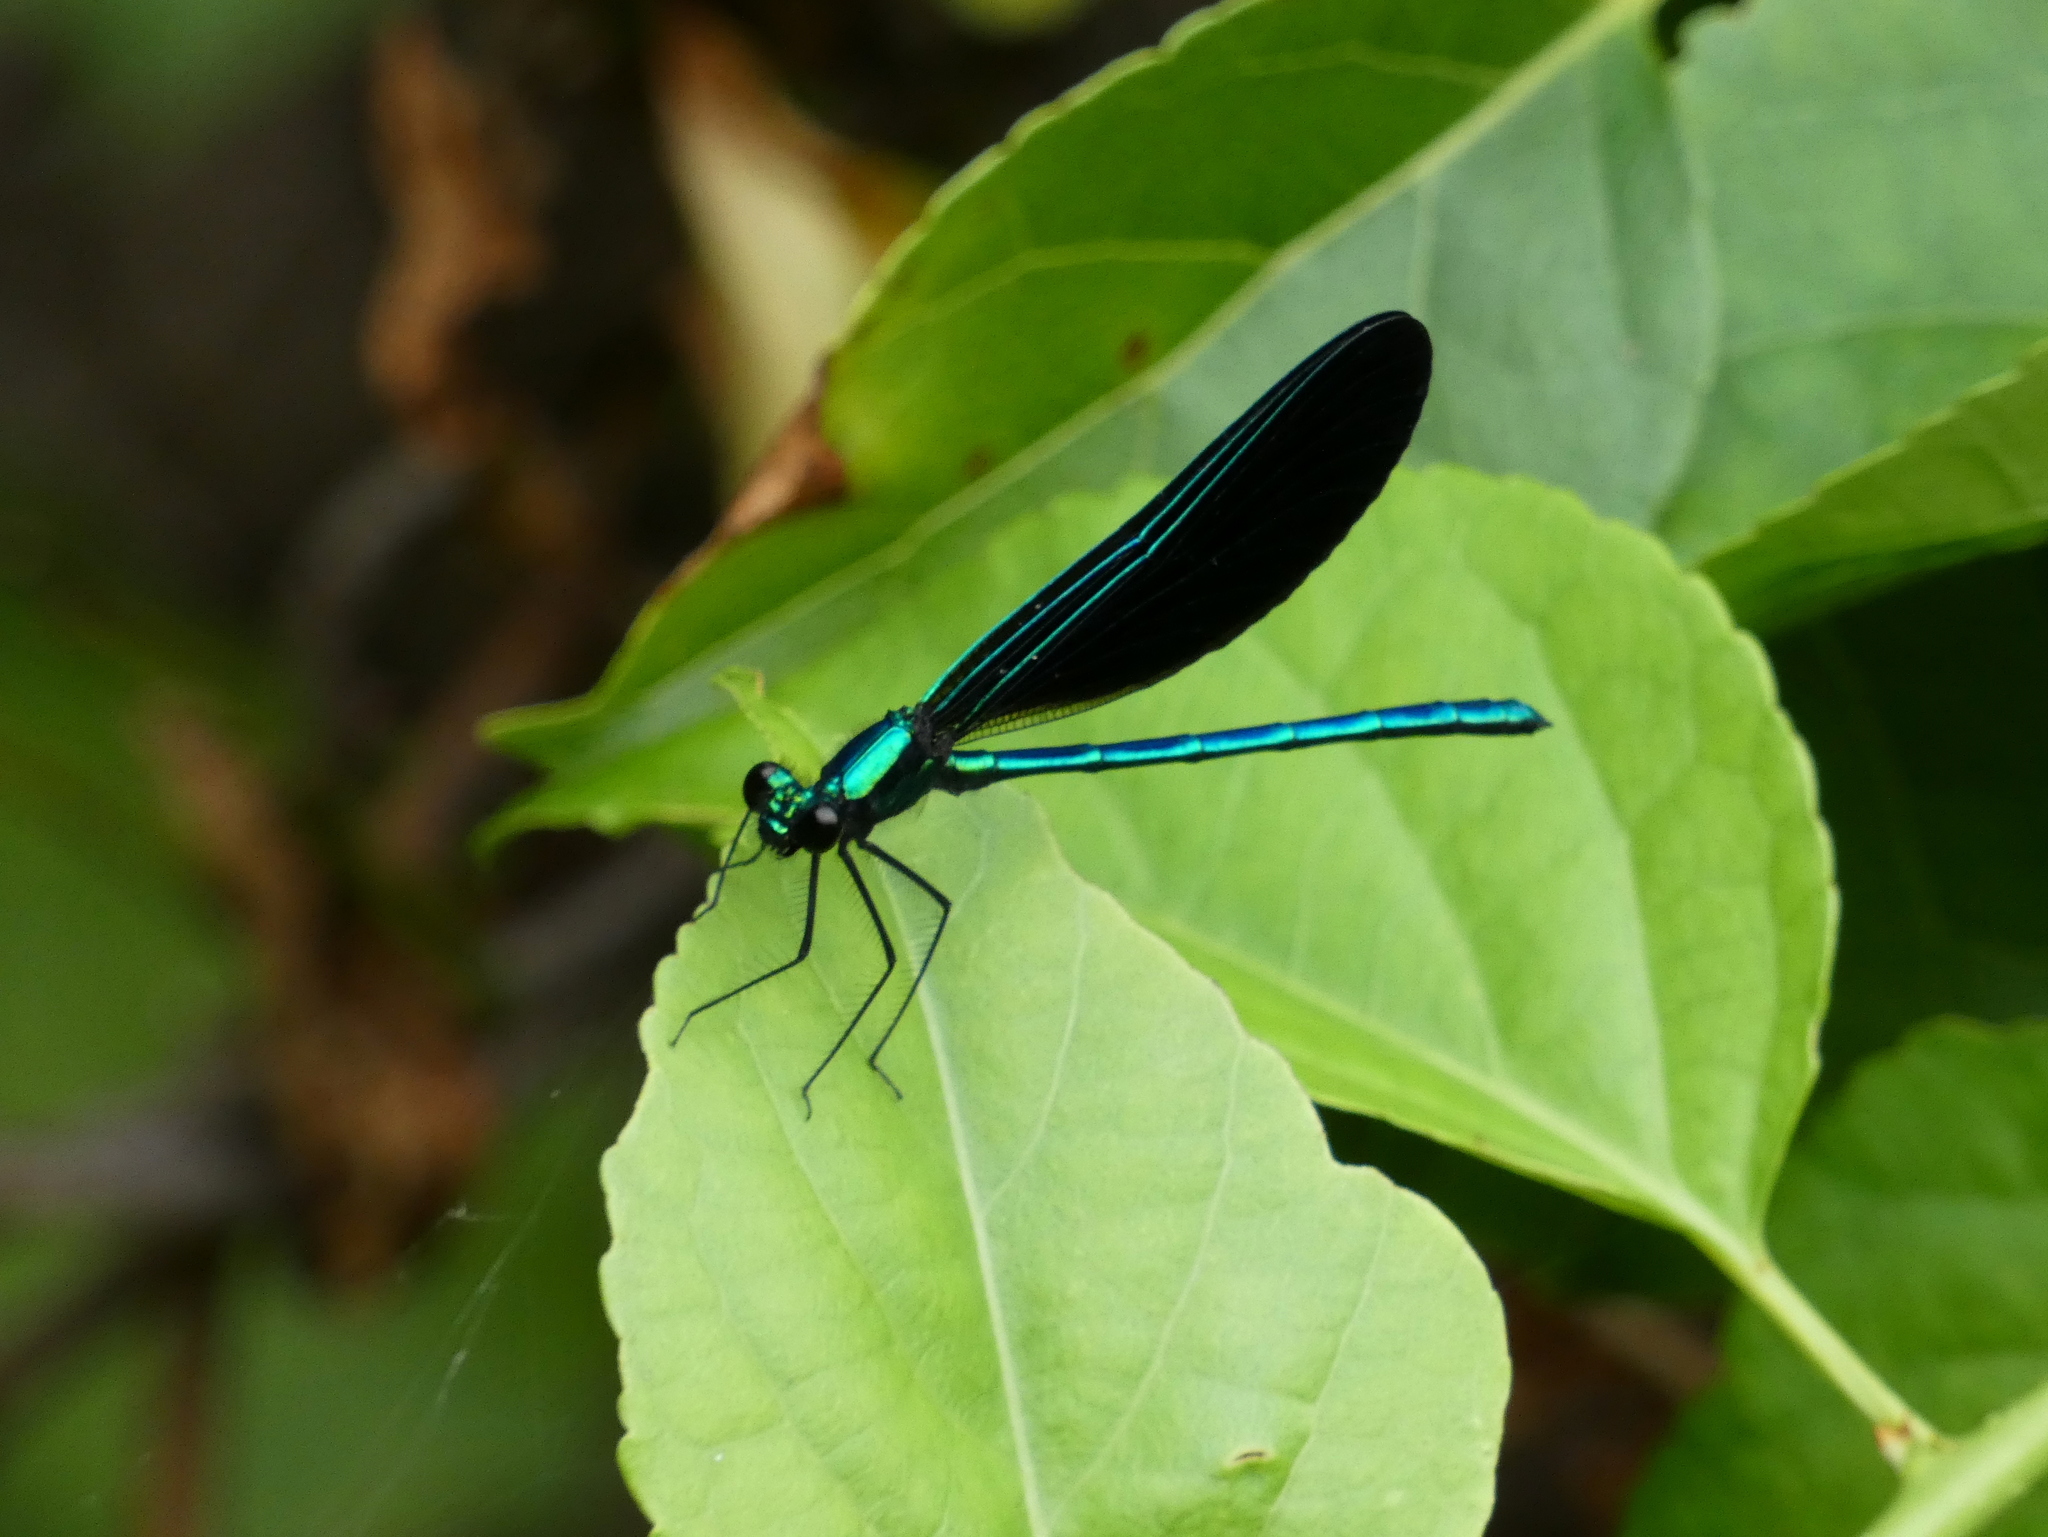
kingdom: Animalia
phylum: Arthropoda
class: Insecta
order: Odonata
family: Calopterygidae
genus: Calopteryx
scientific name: Calopteryx maculata
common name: Ebony jewelwing
